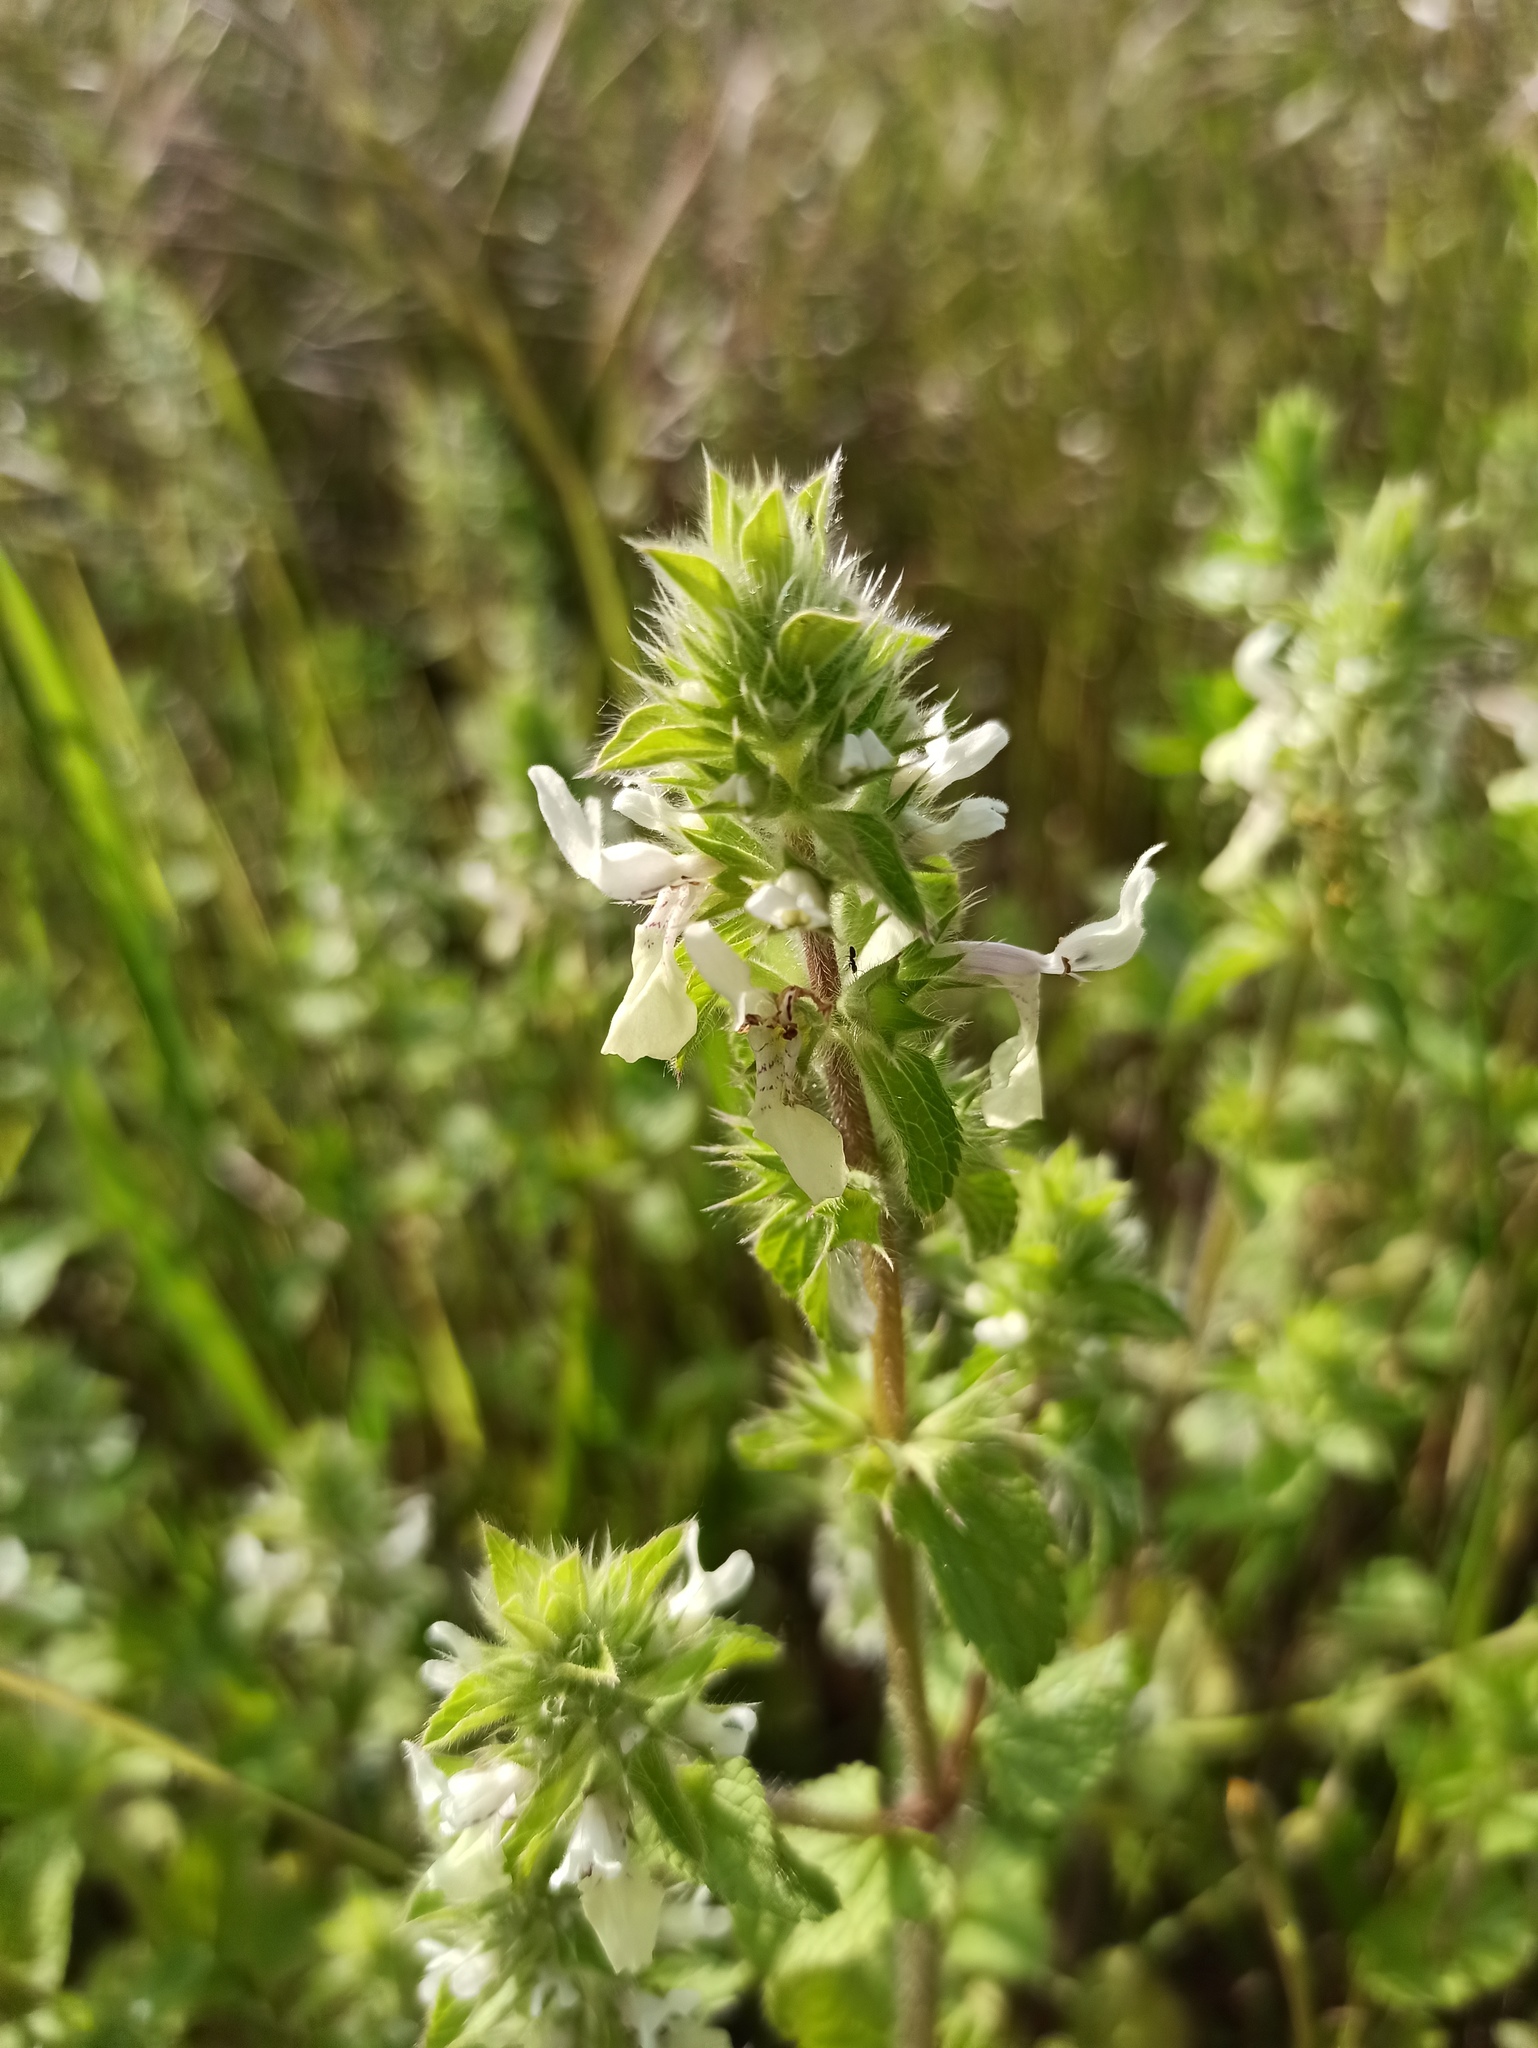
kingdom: Plantae
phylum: Tracheophyta
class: Magnoliopsida
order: Lamiales
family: Lamiaceae
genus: Stachys
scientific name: Stachys ocymastrum
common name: Italian hedgenettle
